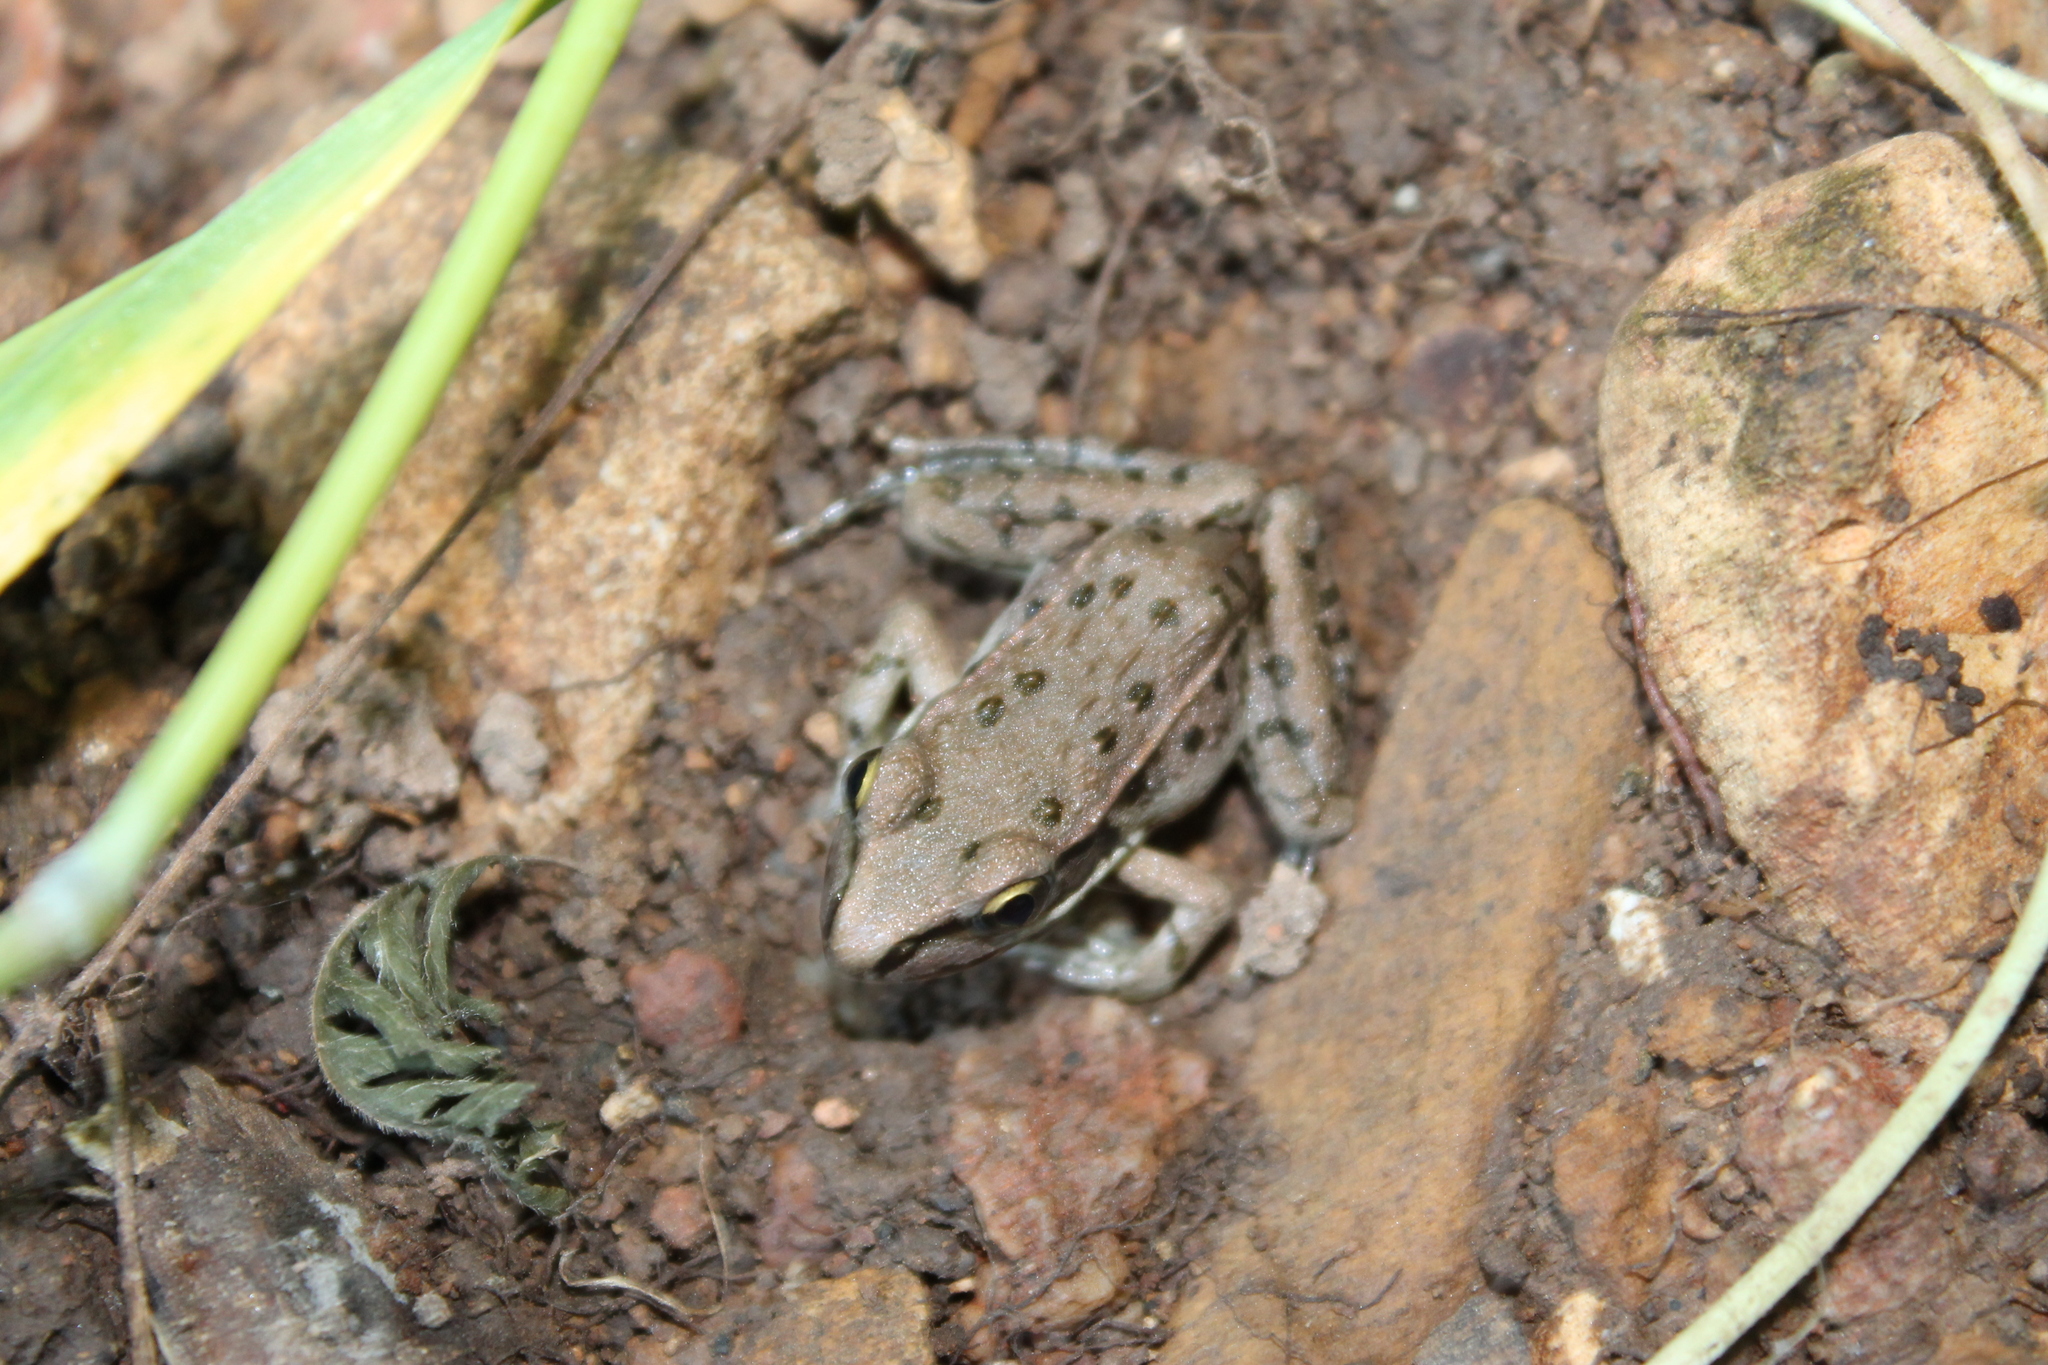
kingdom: Animalia
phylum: Chordata
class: Amphibia
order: Anura
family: Ranidae
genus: Lithobates
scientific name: Lithobates sphenocephalus
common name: Southern leopard frog
